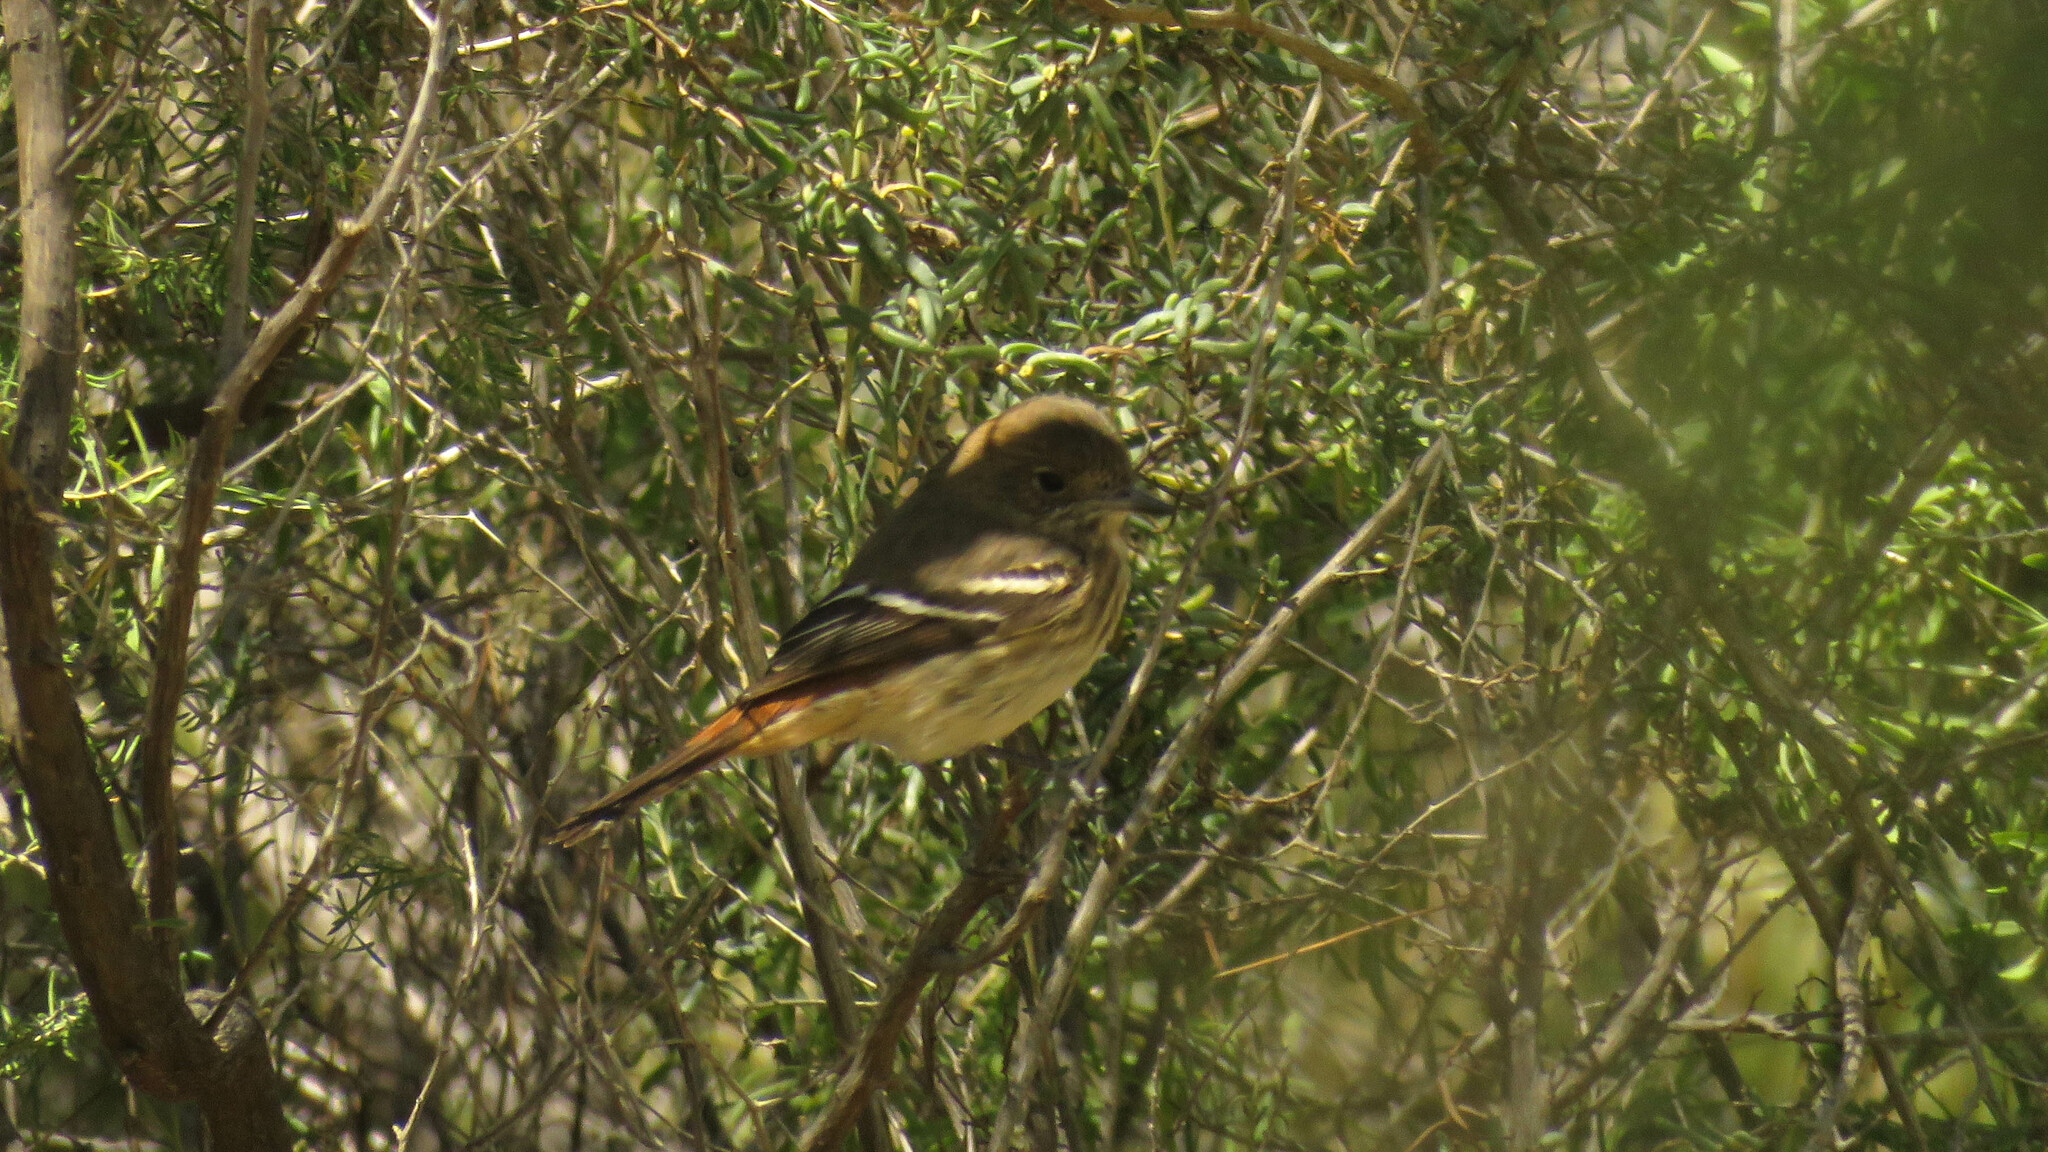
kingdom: Animalia
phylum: Chordata
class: Aves
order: Passeriformes
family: Tyrannidae
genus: Knipolegus
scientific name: Knipolegus hudsoni
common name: Hudson's black tyrant
